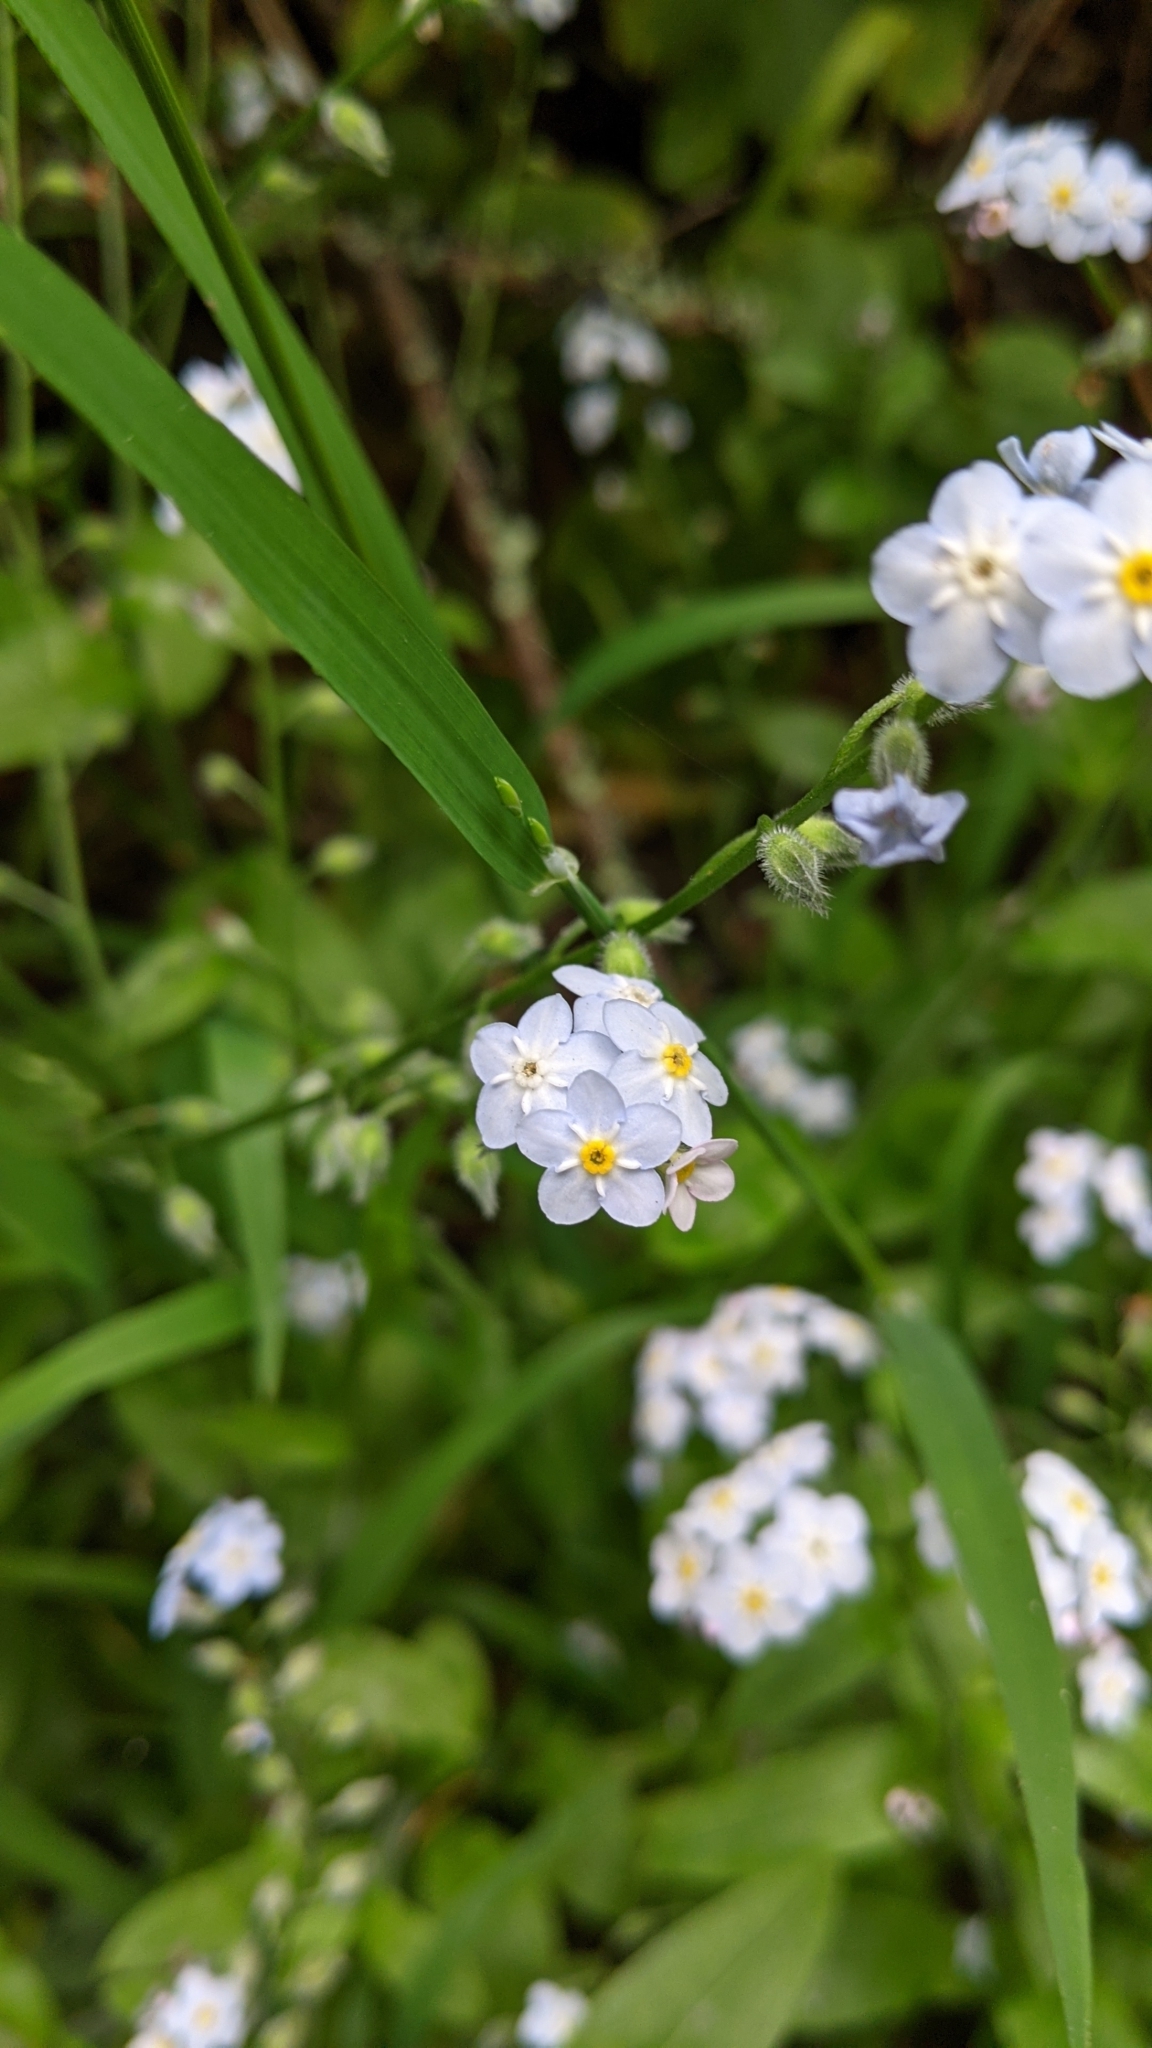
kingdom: Plantae
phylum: Tracheophyta
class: Magnoliopsida
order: Boraginales
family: Boraginaceae
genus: Myosotis
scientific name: Myosotis latifolia
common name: Broadleaf forget-me-not
